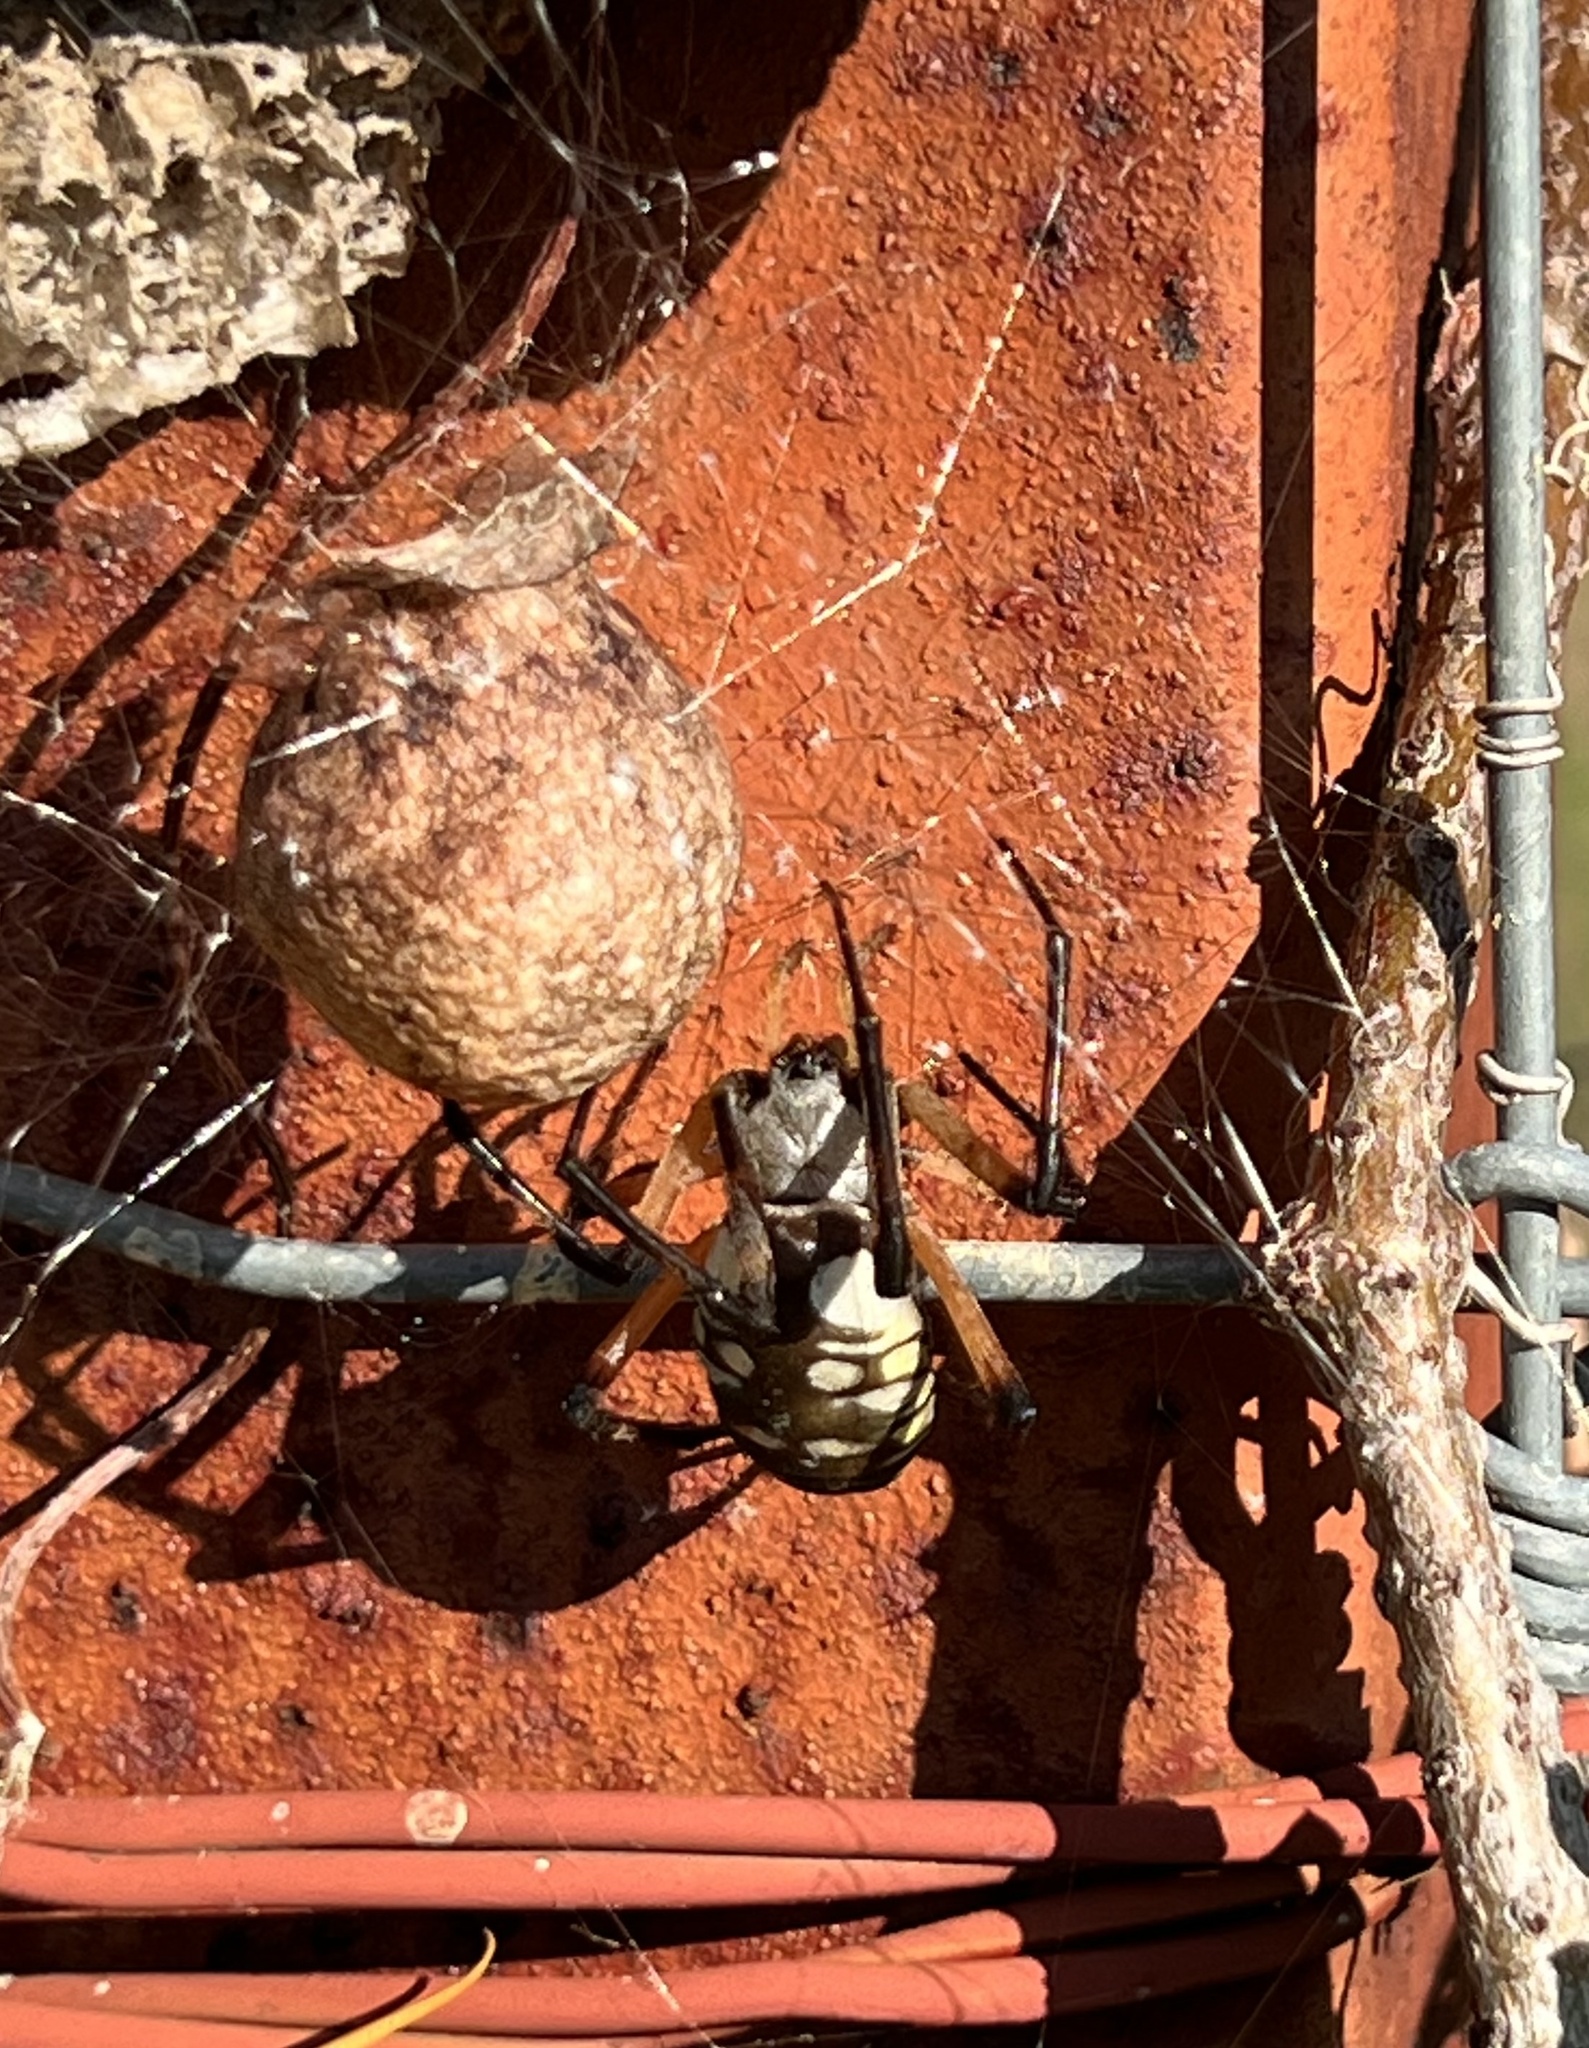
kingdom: Animalia
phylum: Arthropoda
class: Arachnida
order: Araneae
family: Araneidae
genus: Argiope
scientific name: Argiope aurantia
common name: Orb weavers
